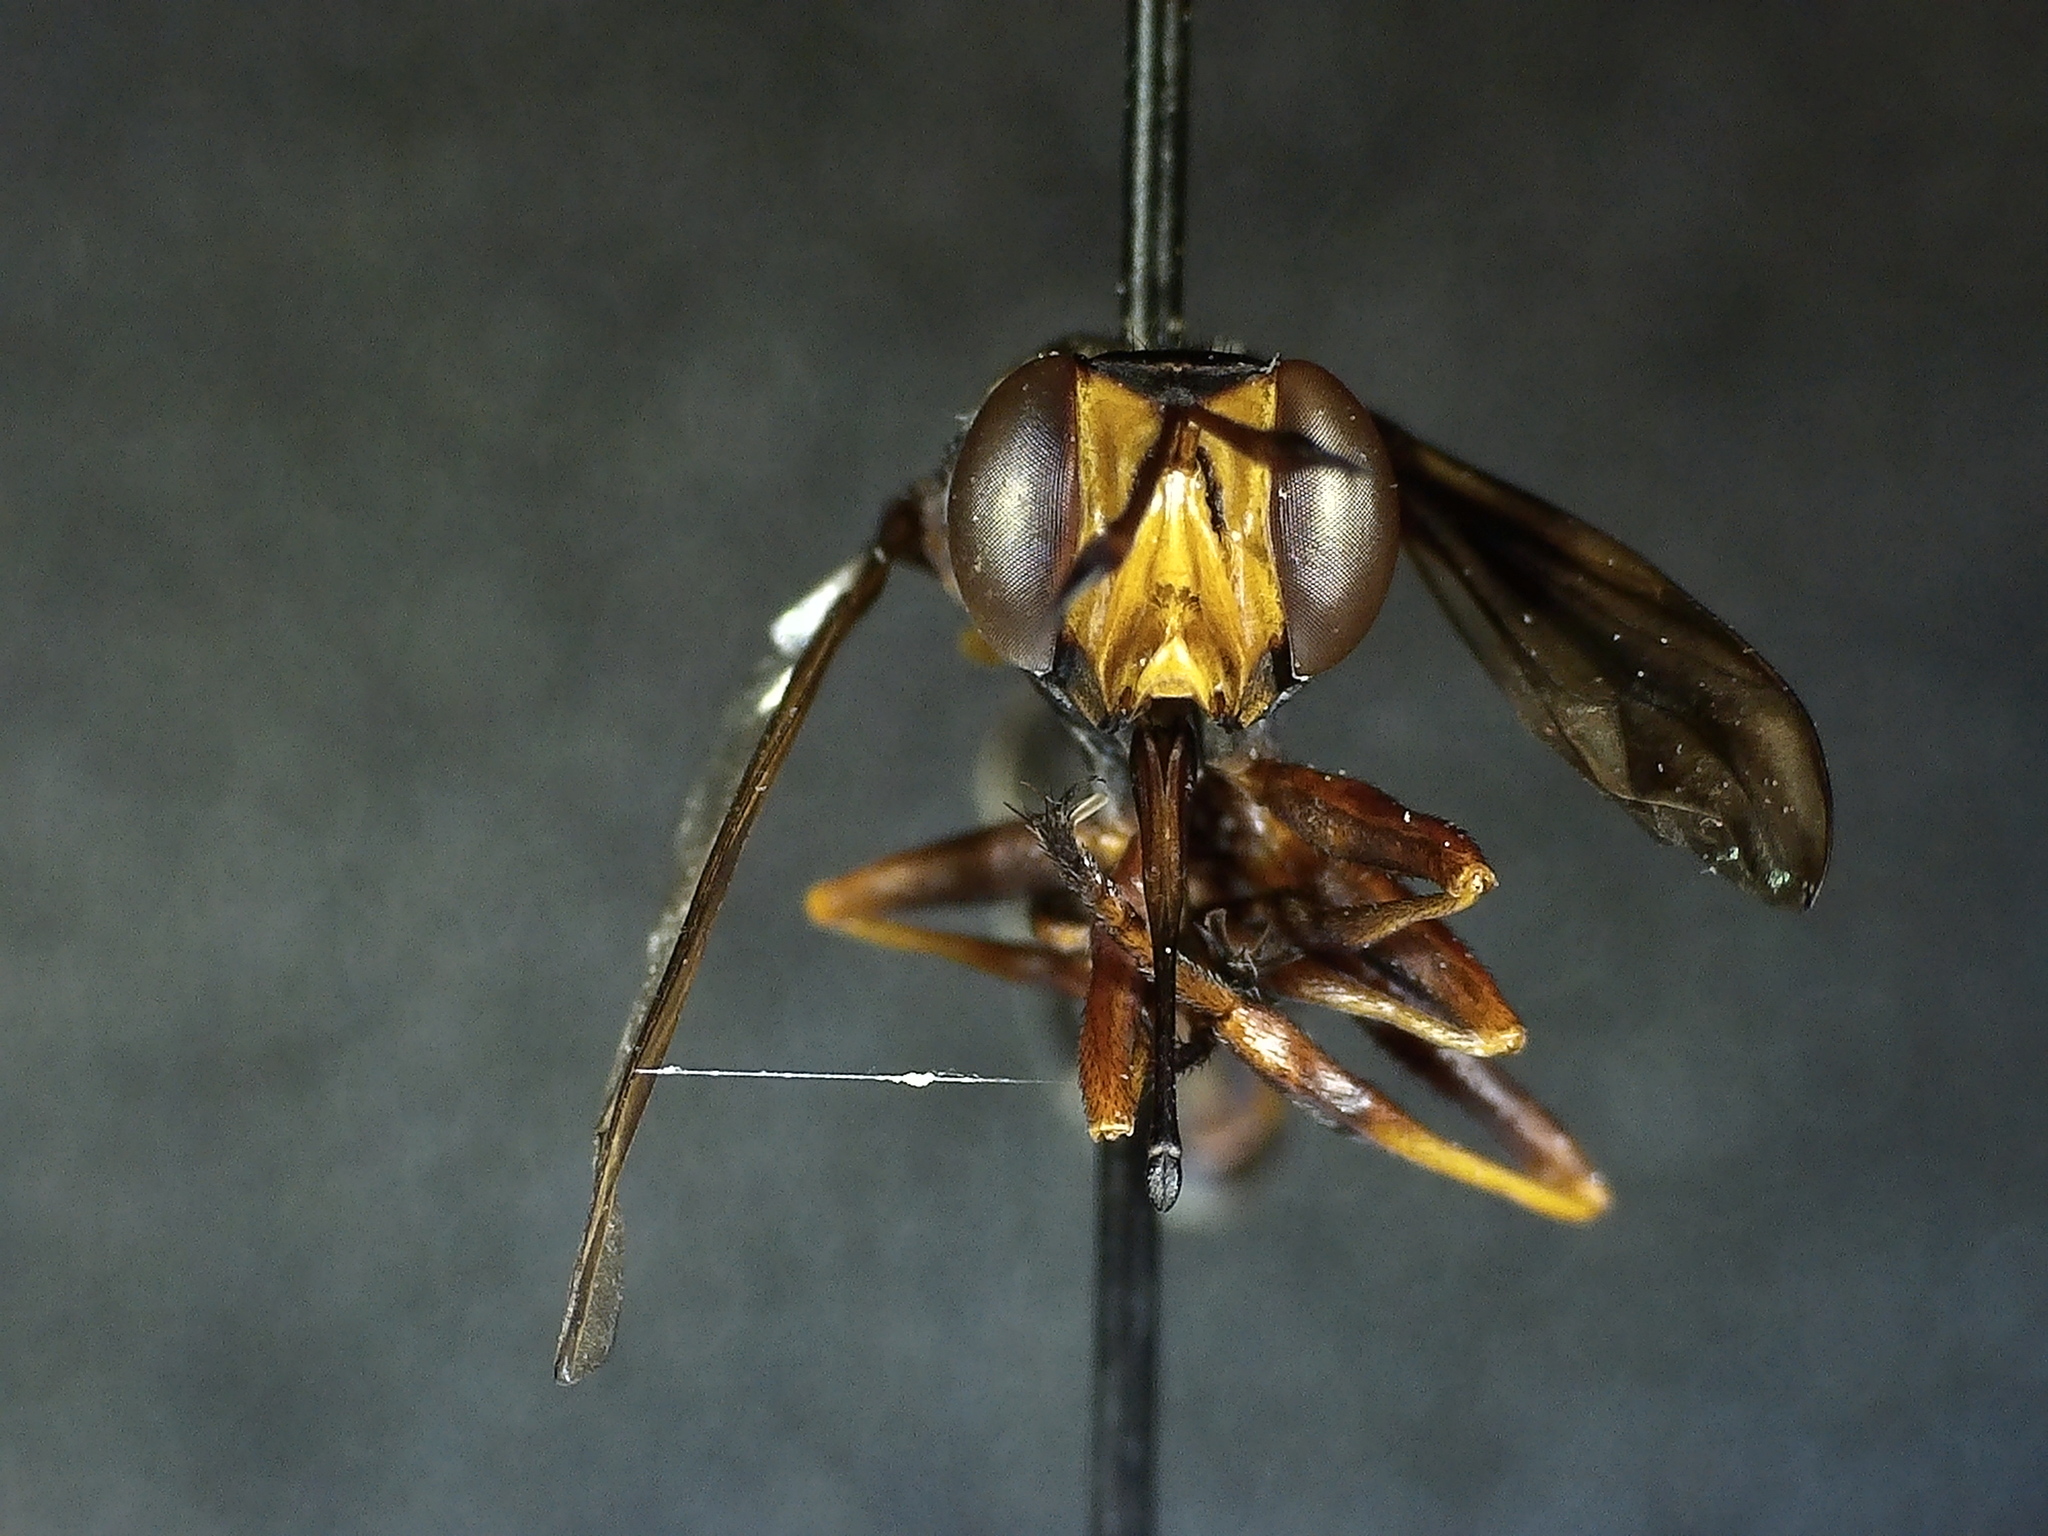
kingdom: Animalia
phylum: Arthropoda
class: Insecta
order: Diptera
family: Conopidae
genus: Physocephala
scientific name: Physocephala furcillata
